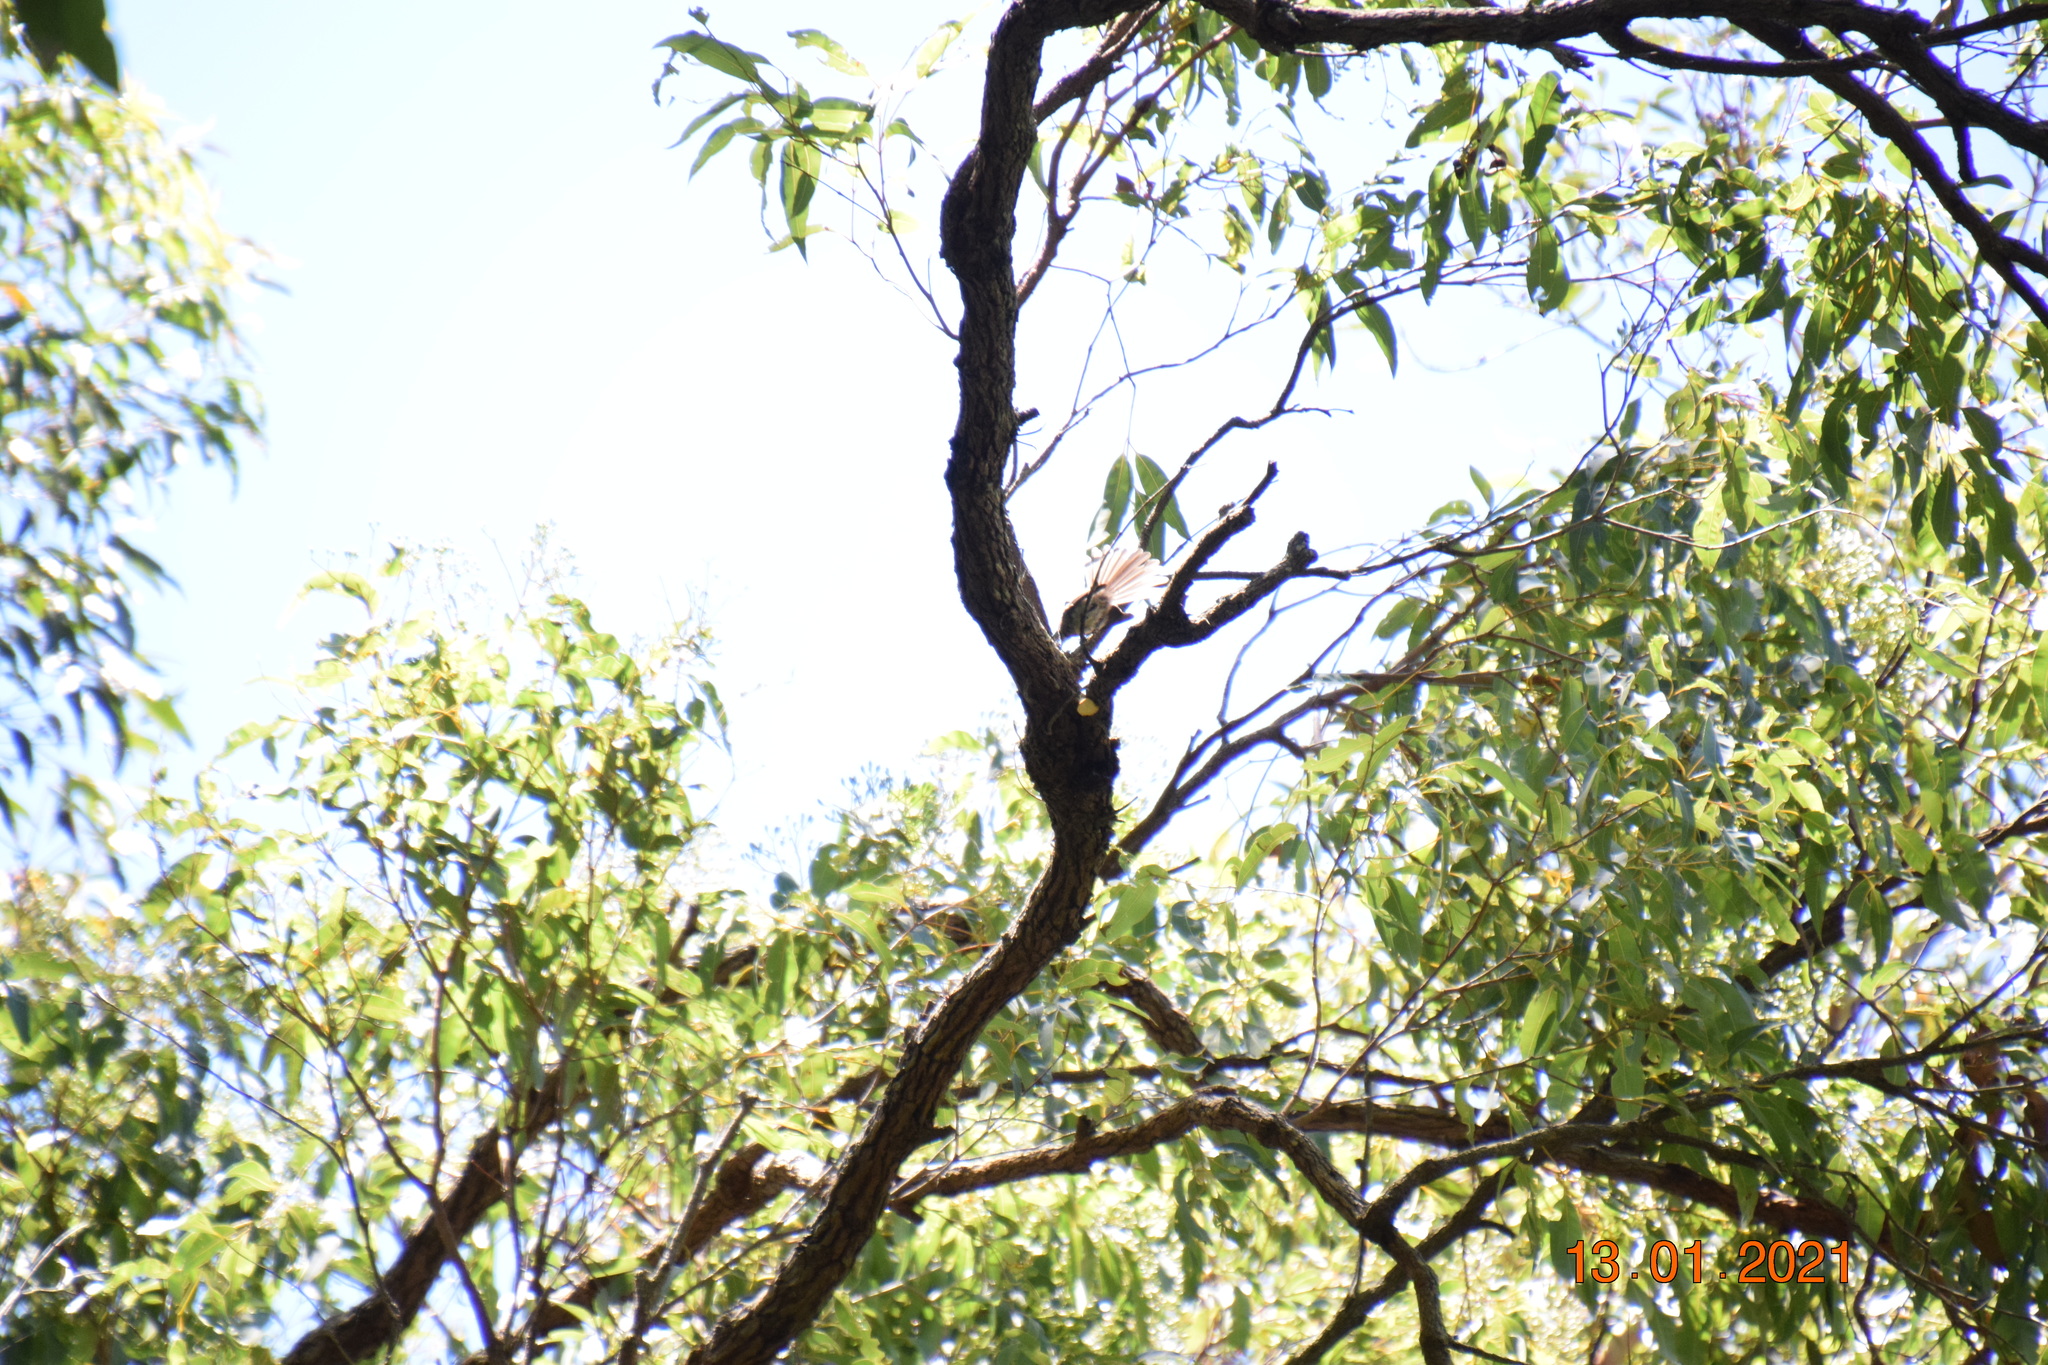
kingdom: Animalia
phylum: Chordata
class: Aves
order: Passeriformes
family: Rhipiduridae
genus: Rhipidura
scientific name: Rhipidura albiscapa
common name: Grey fantail
